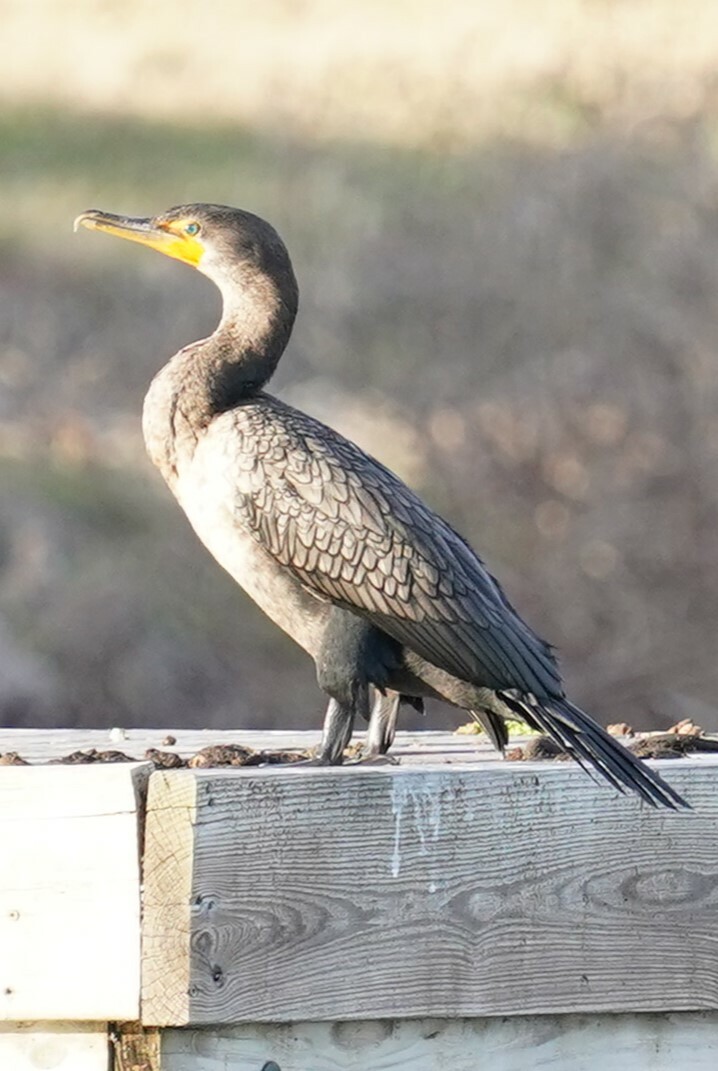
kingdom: Animalia
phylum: Chordata
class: Aves
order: Suliformes
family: Phalacrocoracidae
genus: Phalacrocorax
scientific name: Phalacrocorax auritus
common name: Double-crested cormorant
